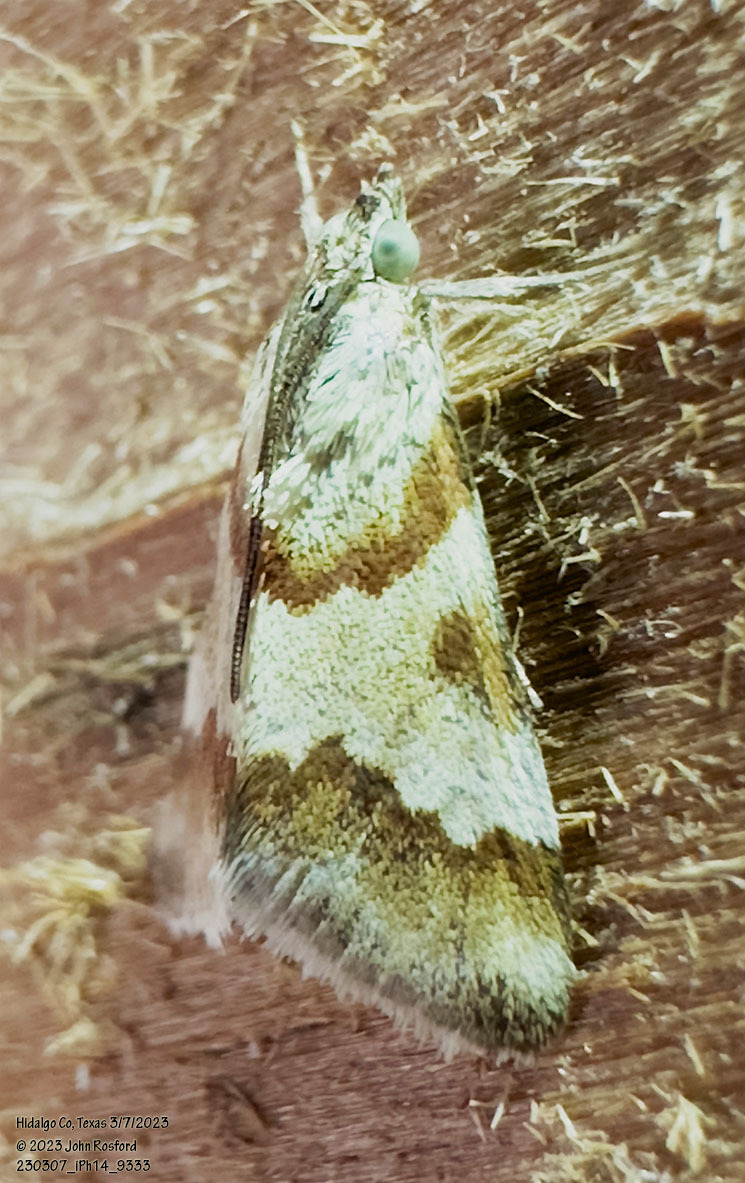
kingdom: Animalia
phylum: Arthropoda
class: Insecta
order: Lepidoptera
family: Crambidae
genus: Noctuelia
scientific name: Noctuelia Mimoschinia rufofascialis
